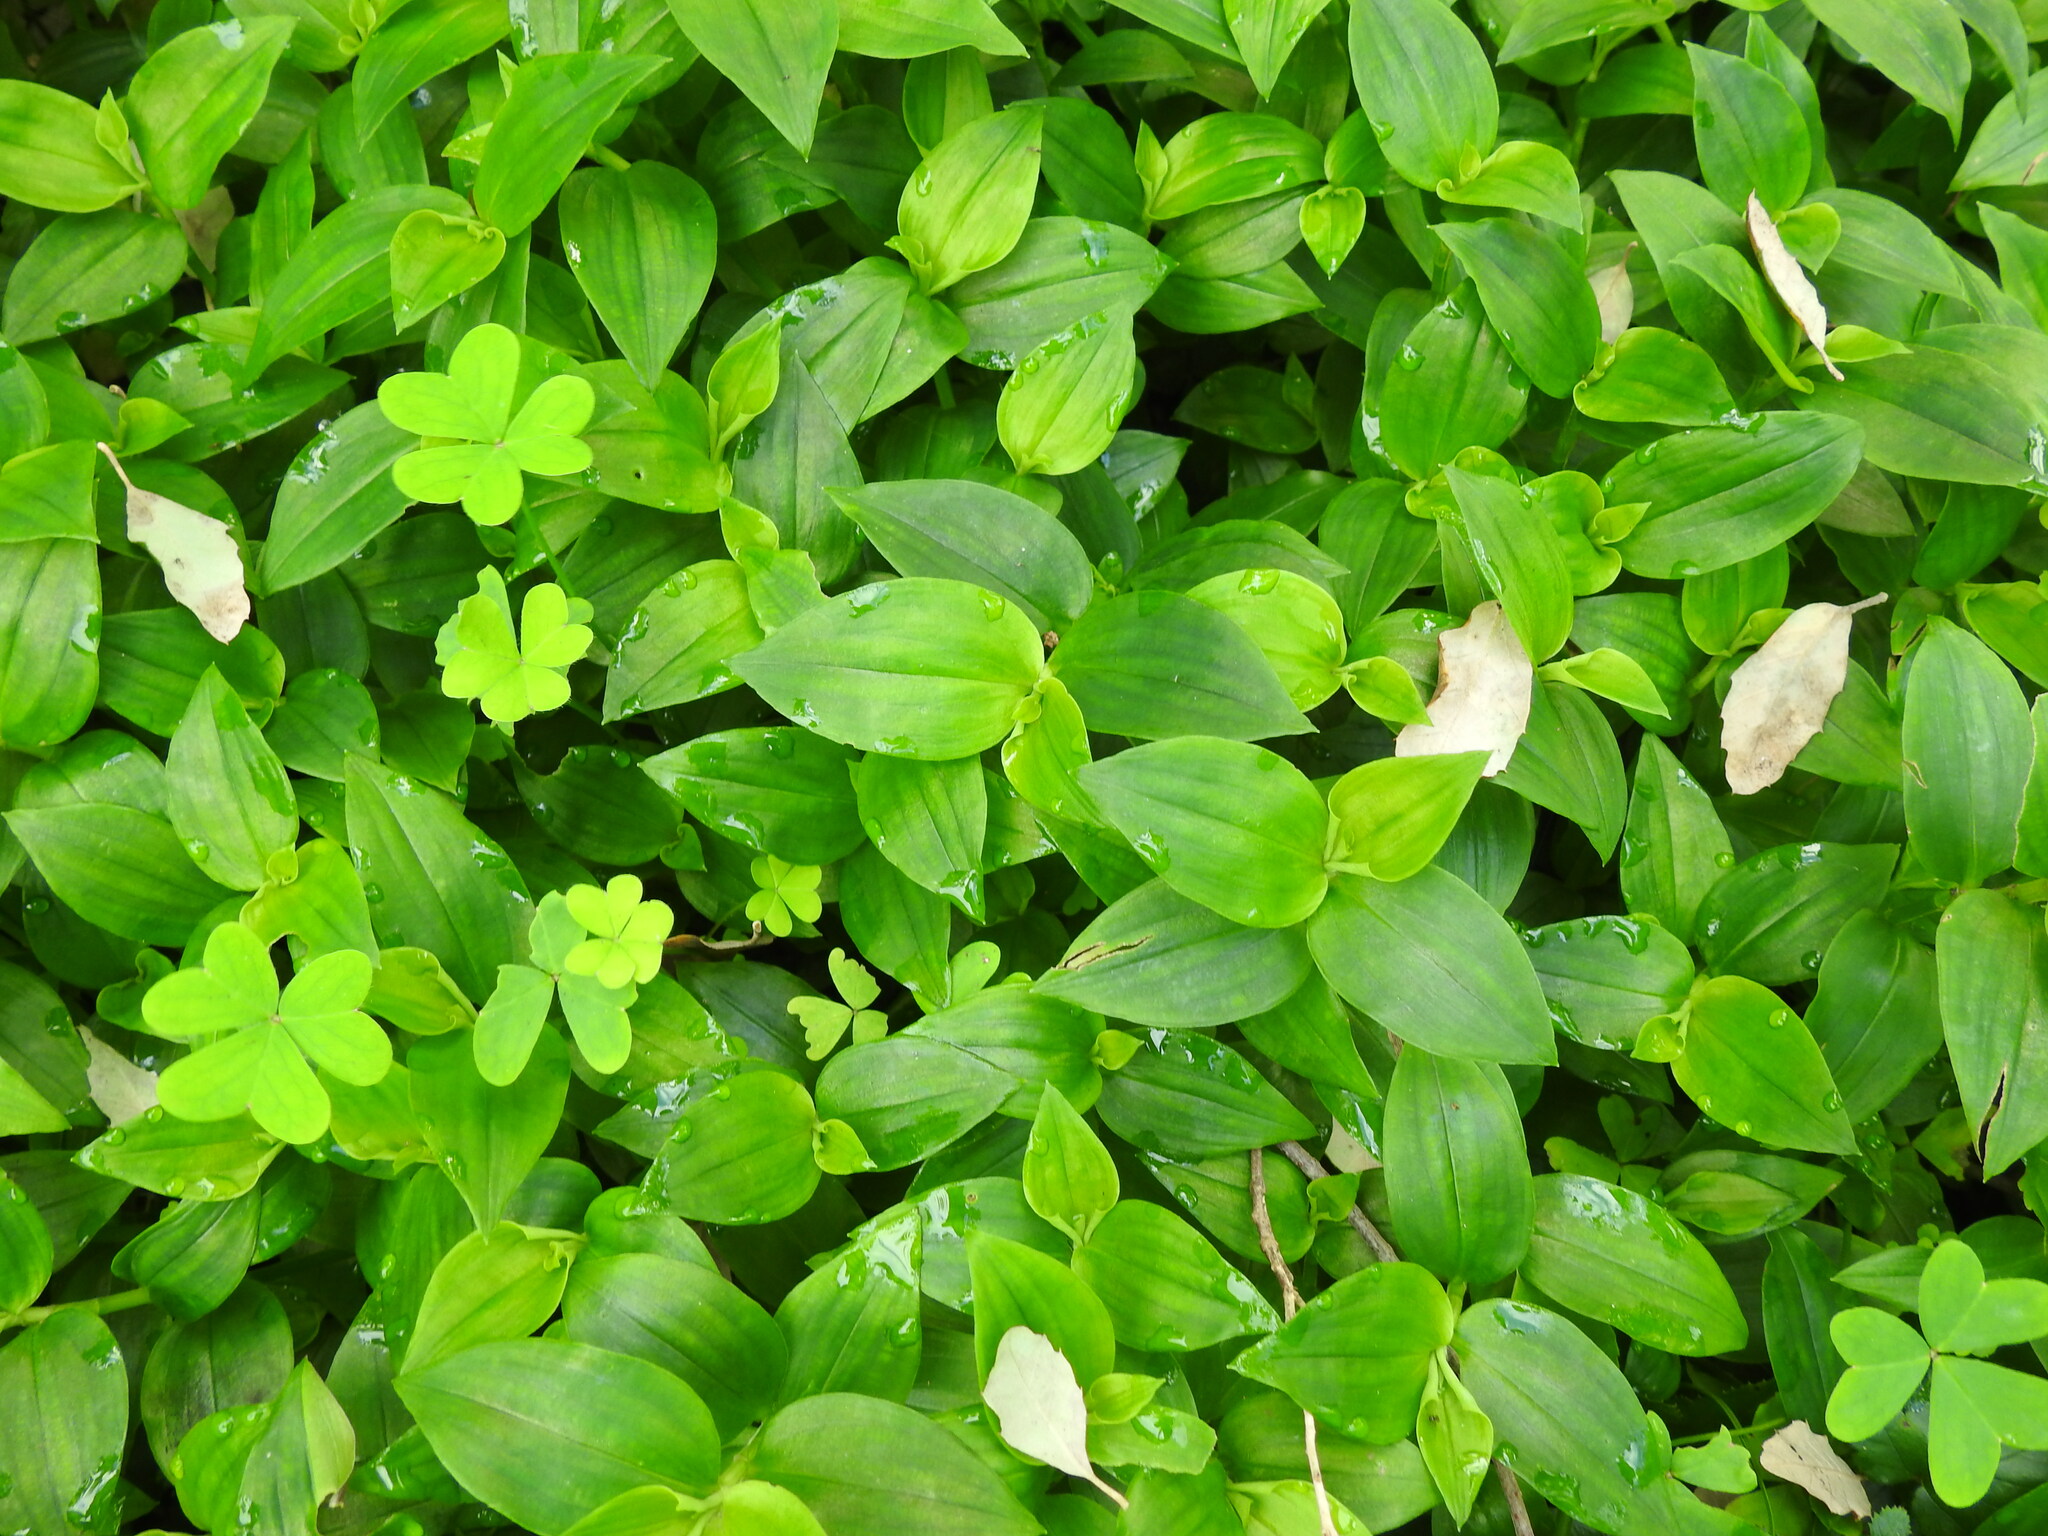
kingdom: Plantae
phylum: Tracheophyta
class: Liliopsida
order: Commelinales
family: Commelinaceae
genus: Tradescantia
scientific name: Tradescantia fluminensis
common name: Wandering-jew
